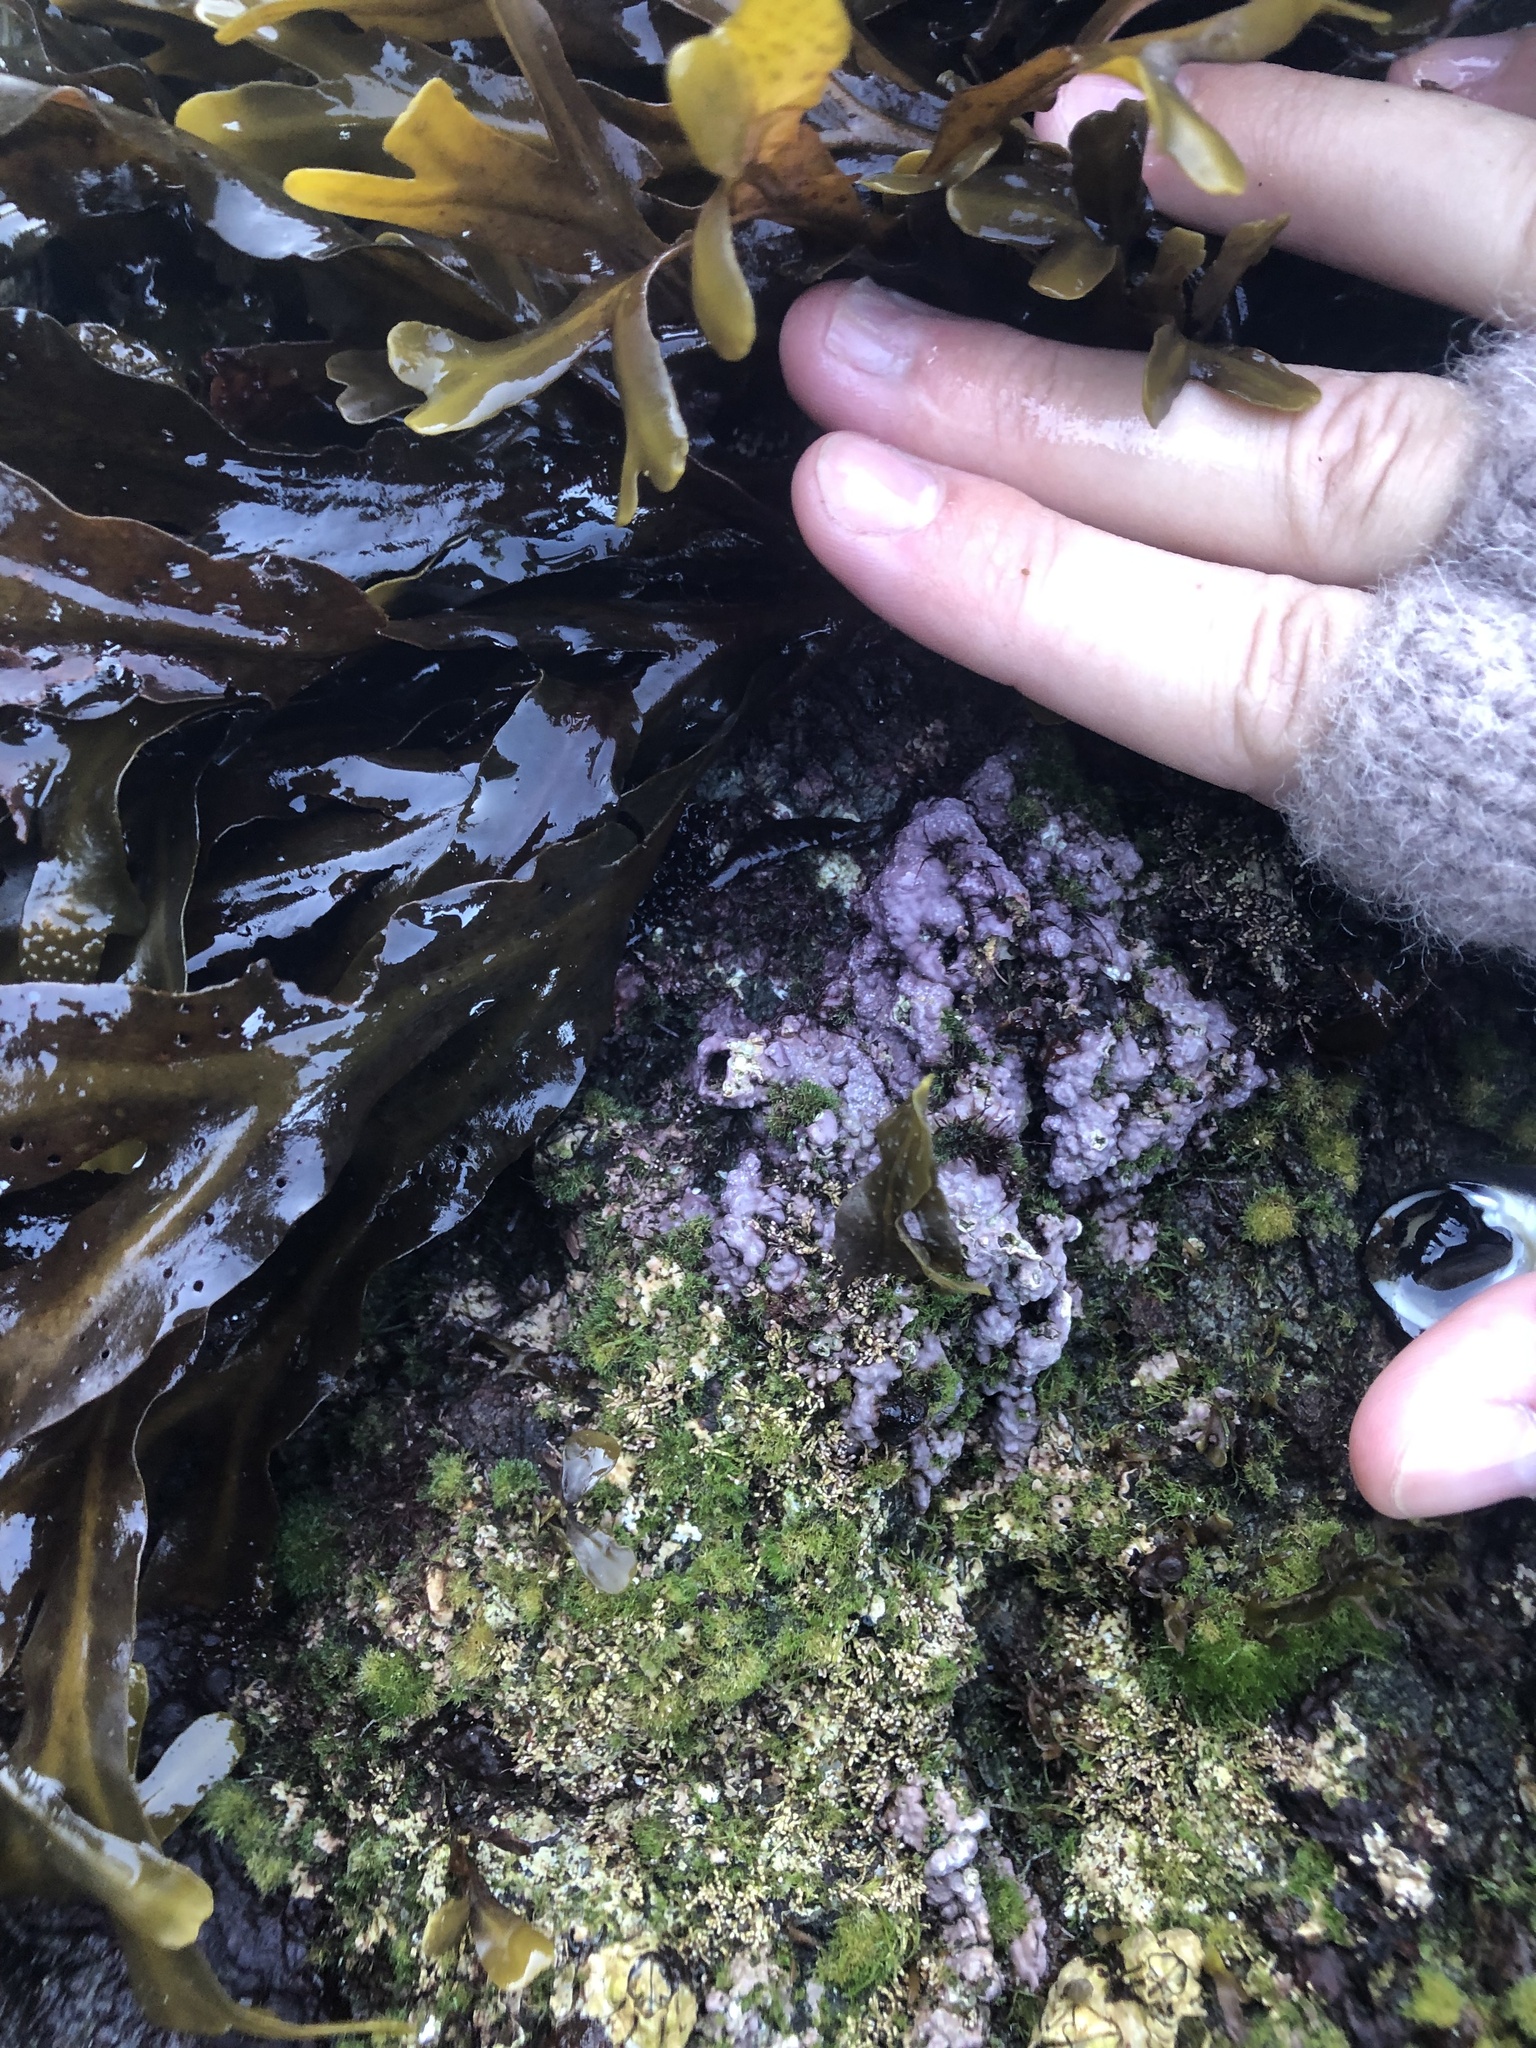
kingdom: Plantae
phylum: Rhodophyta
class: Florideophyceae
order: Corallinales
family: Corallinaceae
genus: Chamberlainium
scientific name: Chamberlainium tumidum
